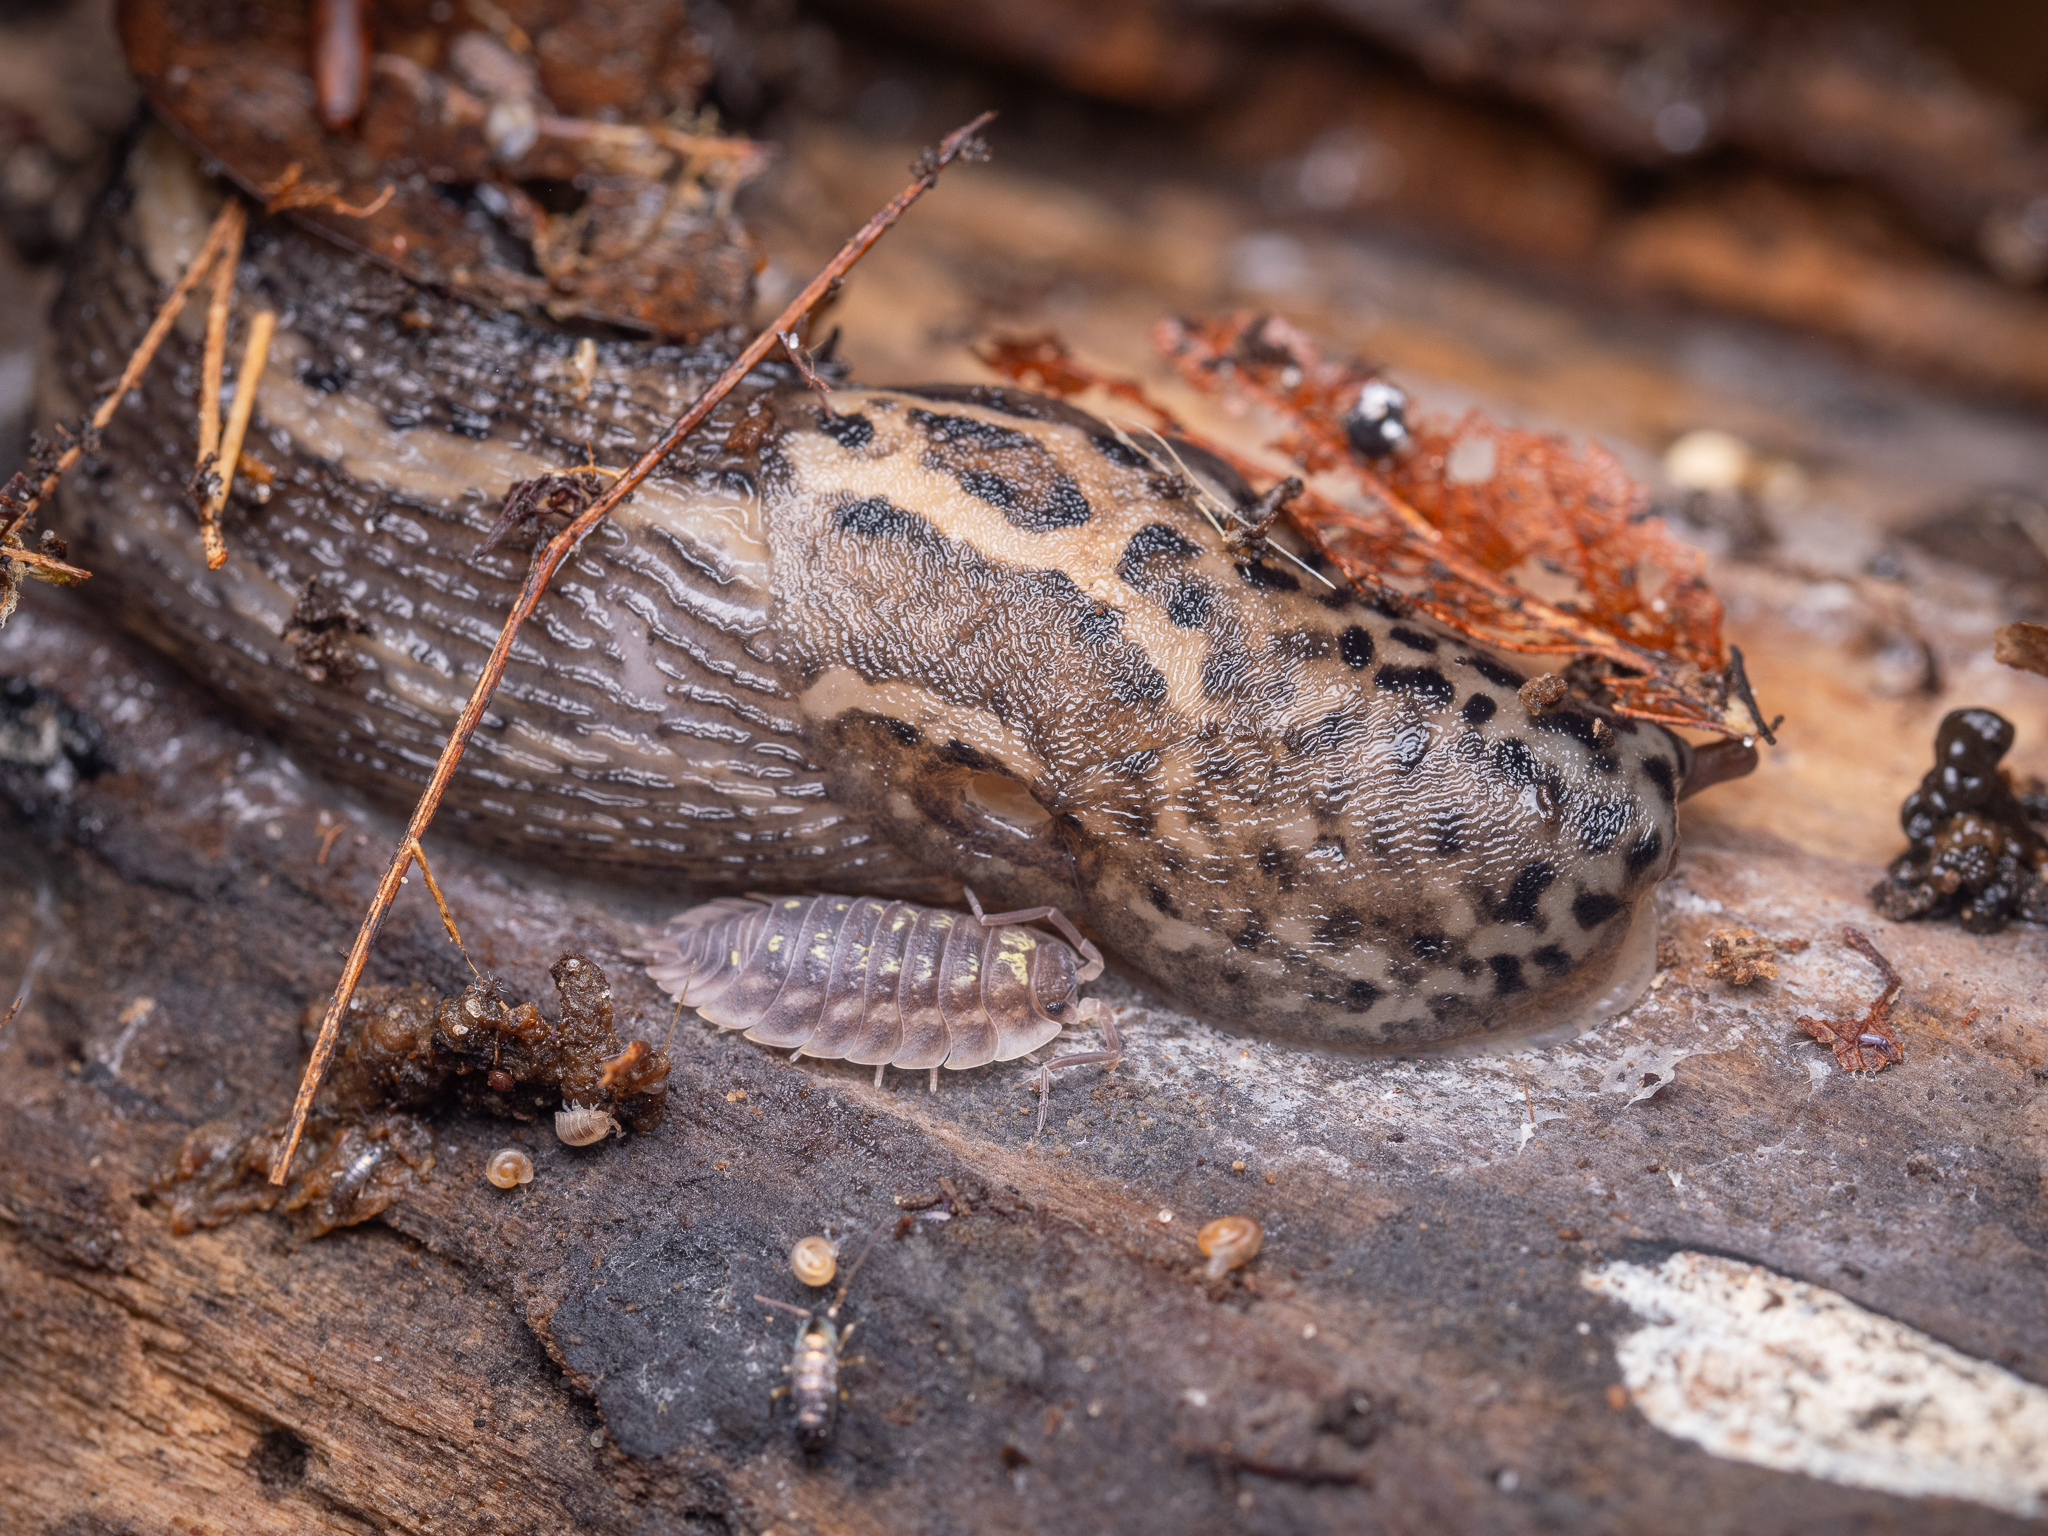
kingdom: Animalia
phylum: Mollusca
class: Gastropoda
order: Stylommatophora
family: Limacidae
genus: Limax
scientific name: Limax maximus
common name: Great grey slug
